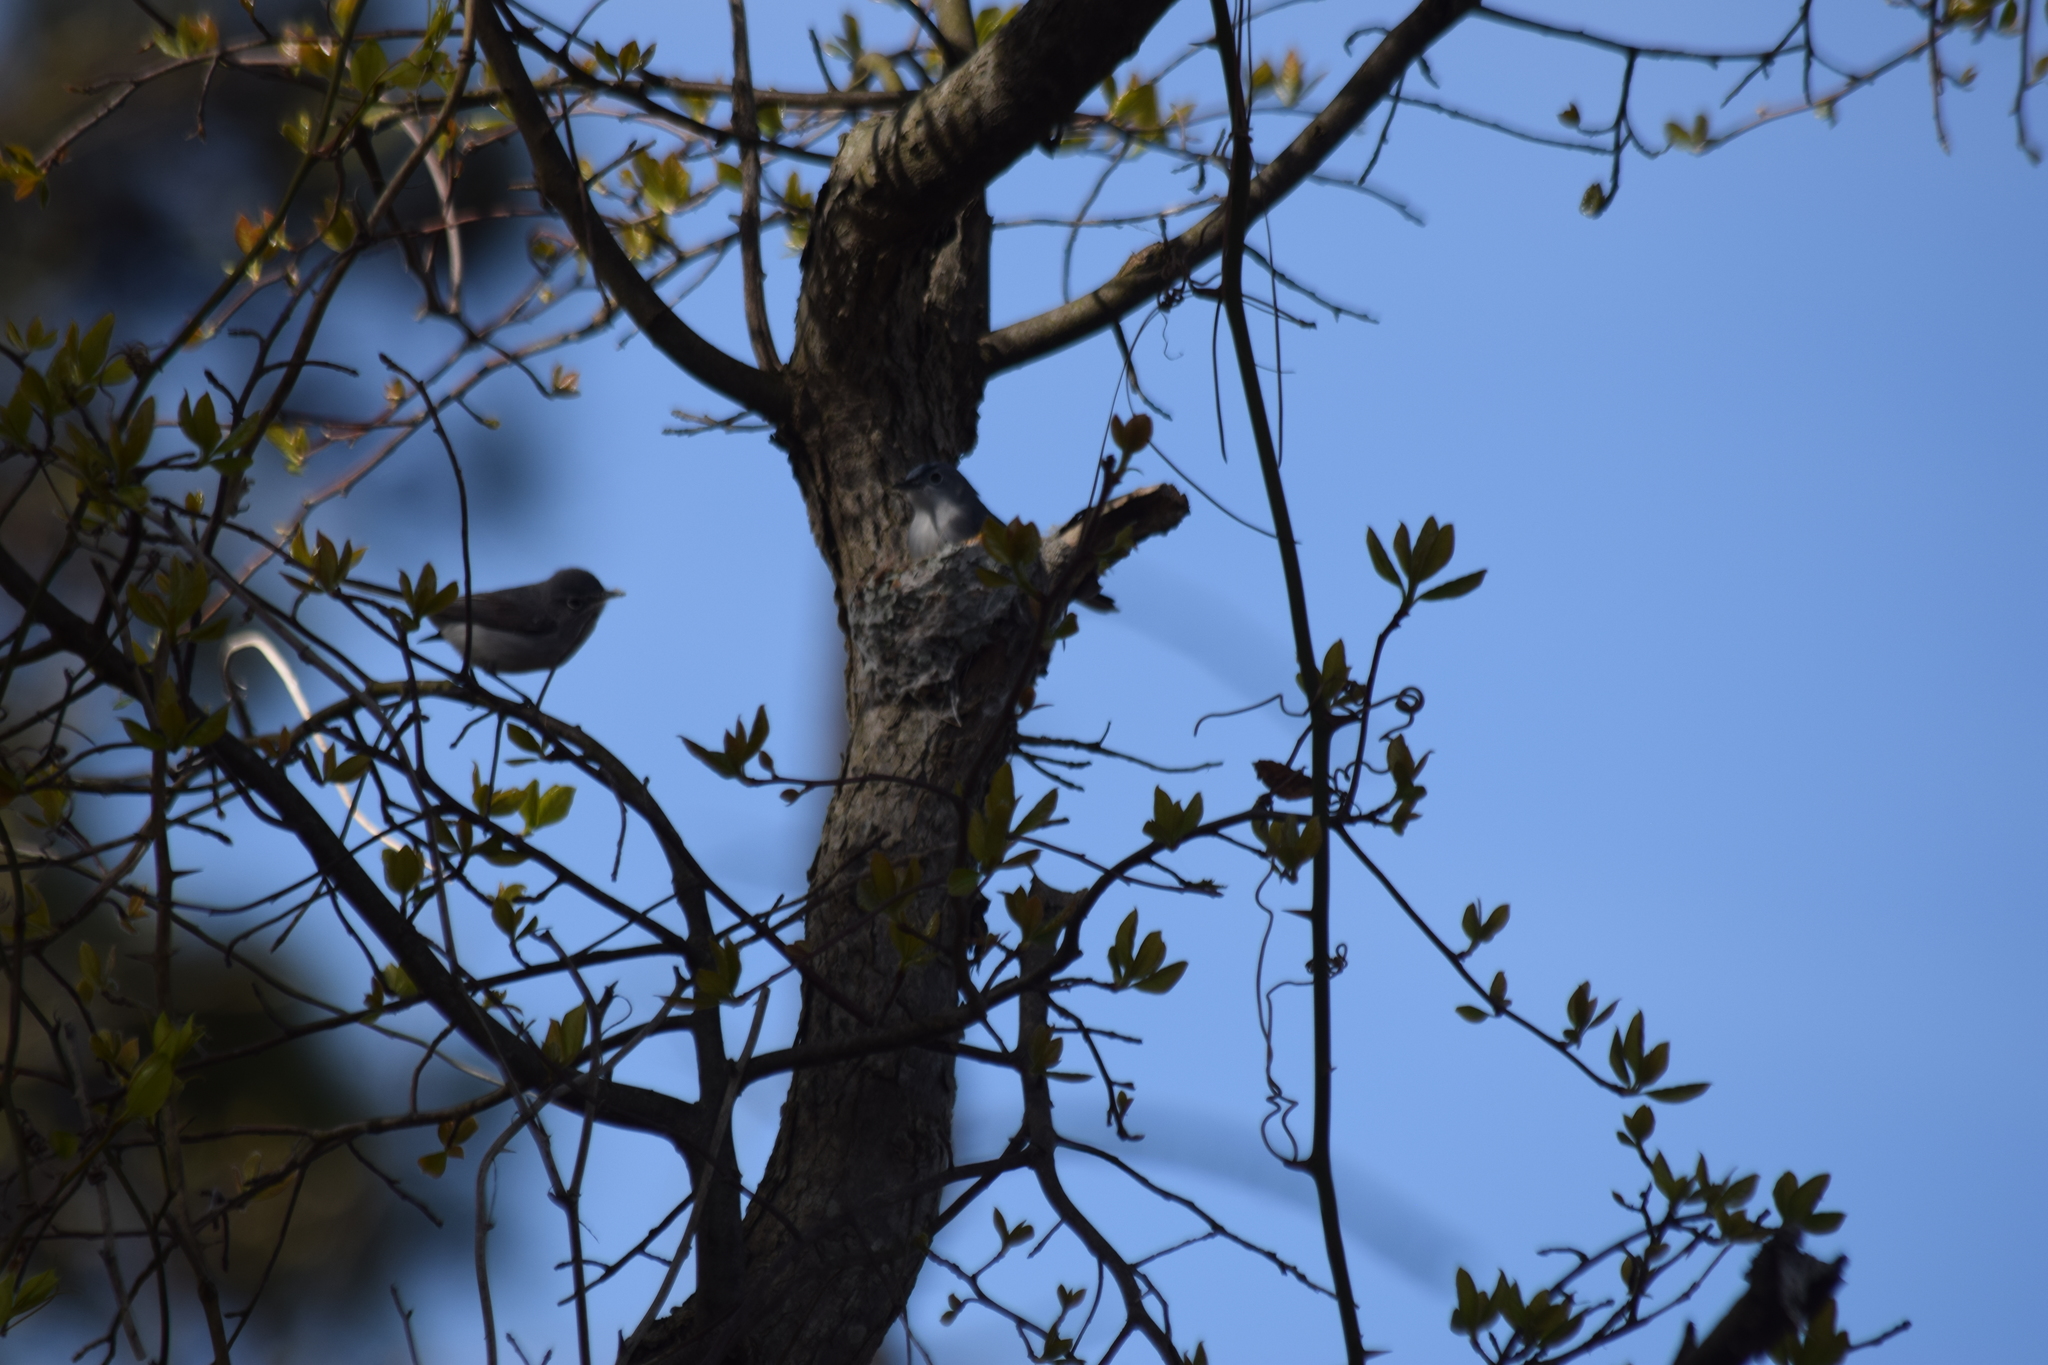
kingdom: Animalia
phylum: Chordata
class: Aves
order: Passeriformes
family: Polioptilidae
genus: Polioptila
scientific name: Polioptila caerulea
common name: Blue-gray gnatcatcher
